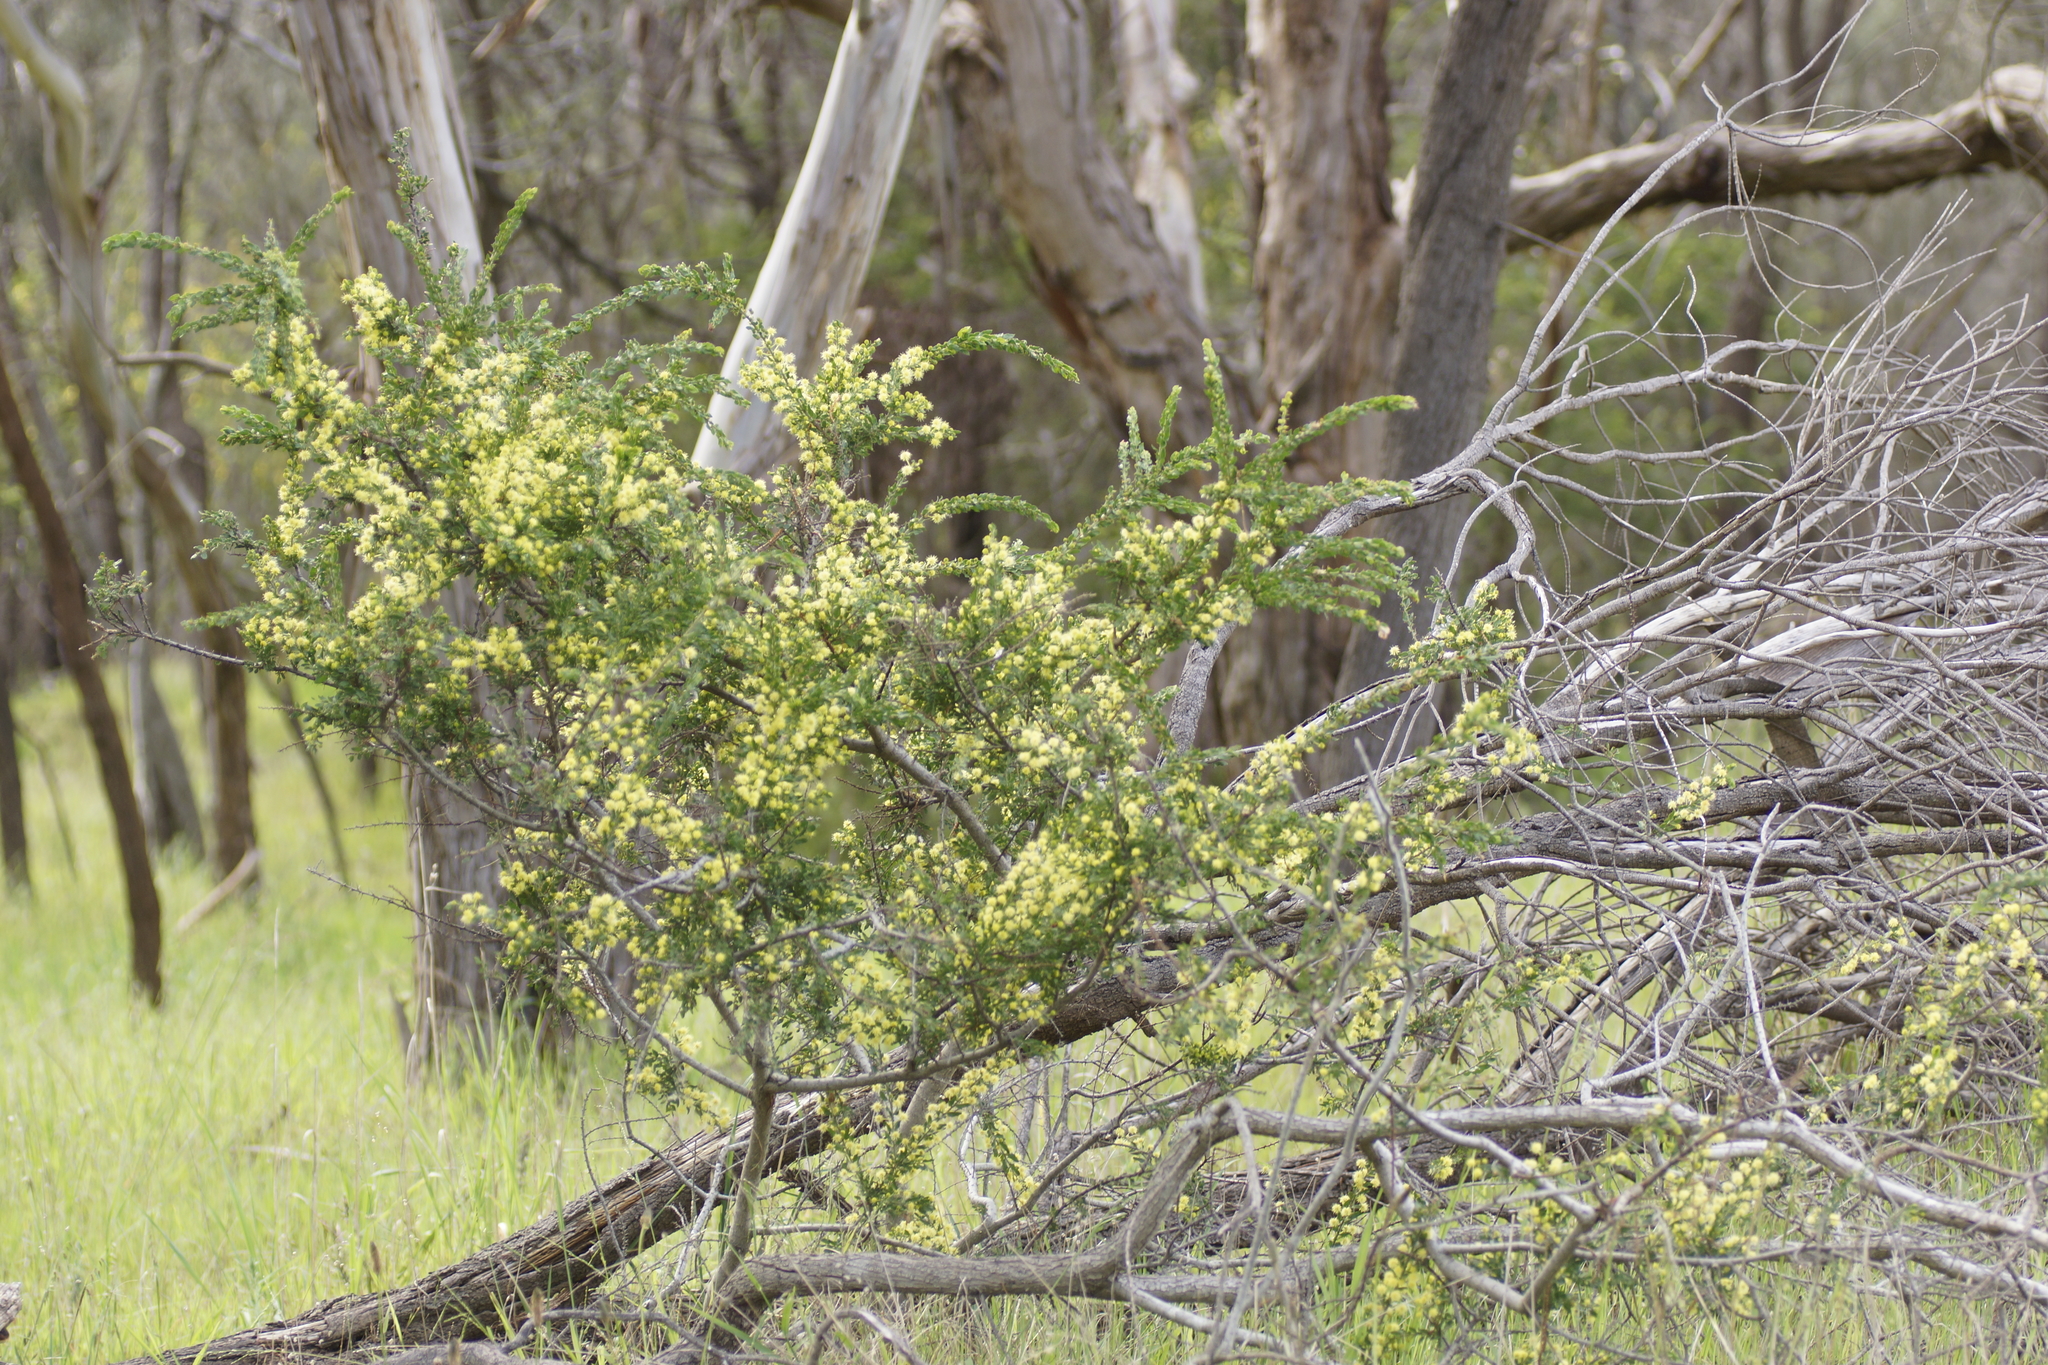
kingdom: Plantae
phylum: Tracheophyta
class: Magnoliopsida
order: Fabales
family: Fabaceae
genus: Acacia
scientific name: Acacia paradoxa
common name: Paradox acacia
